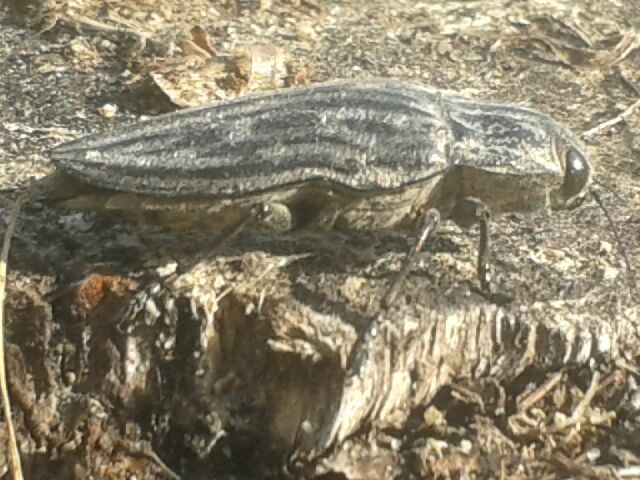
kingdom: Animalia
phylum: Arthropoda
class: Insecta
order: Coleoptera
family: Buprestidae
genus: Chalcophora
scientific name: Chalcophora mariana
